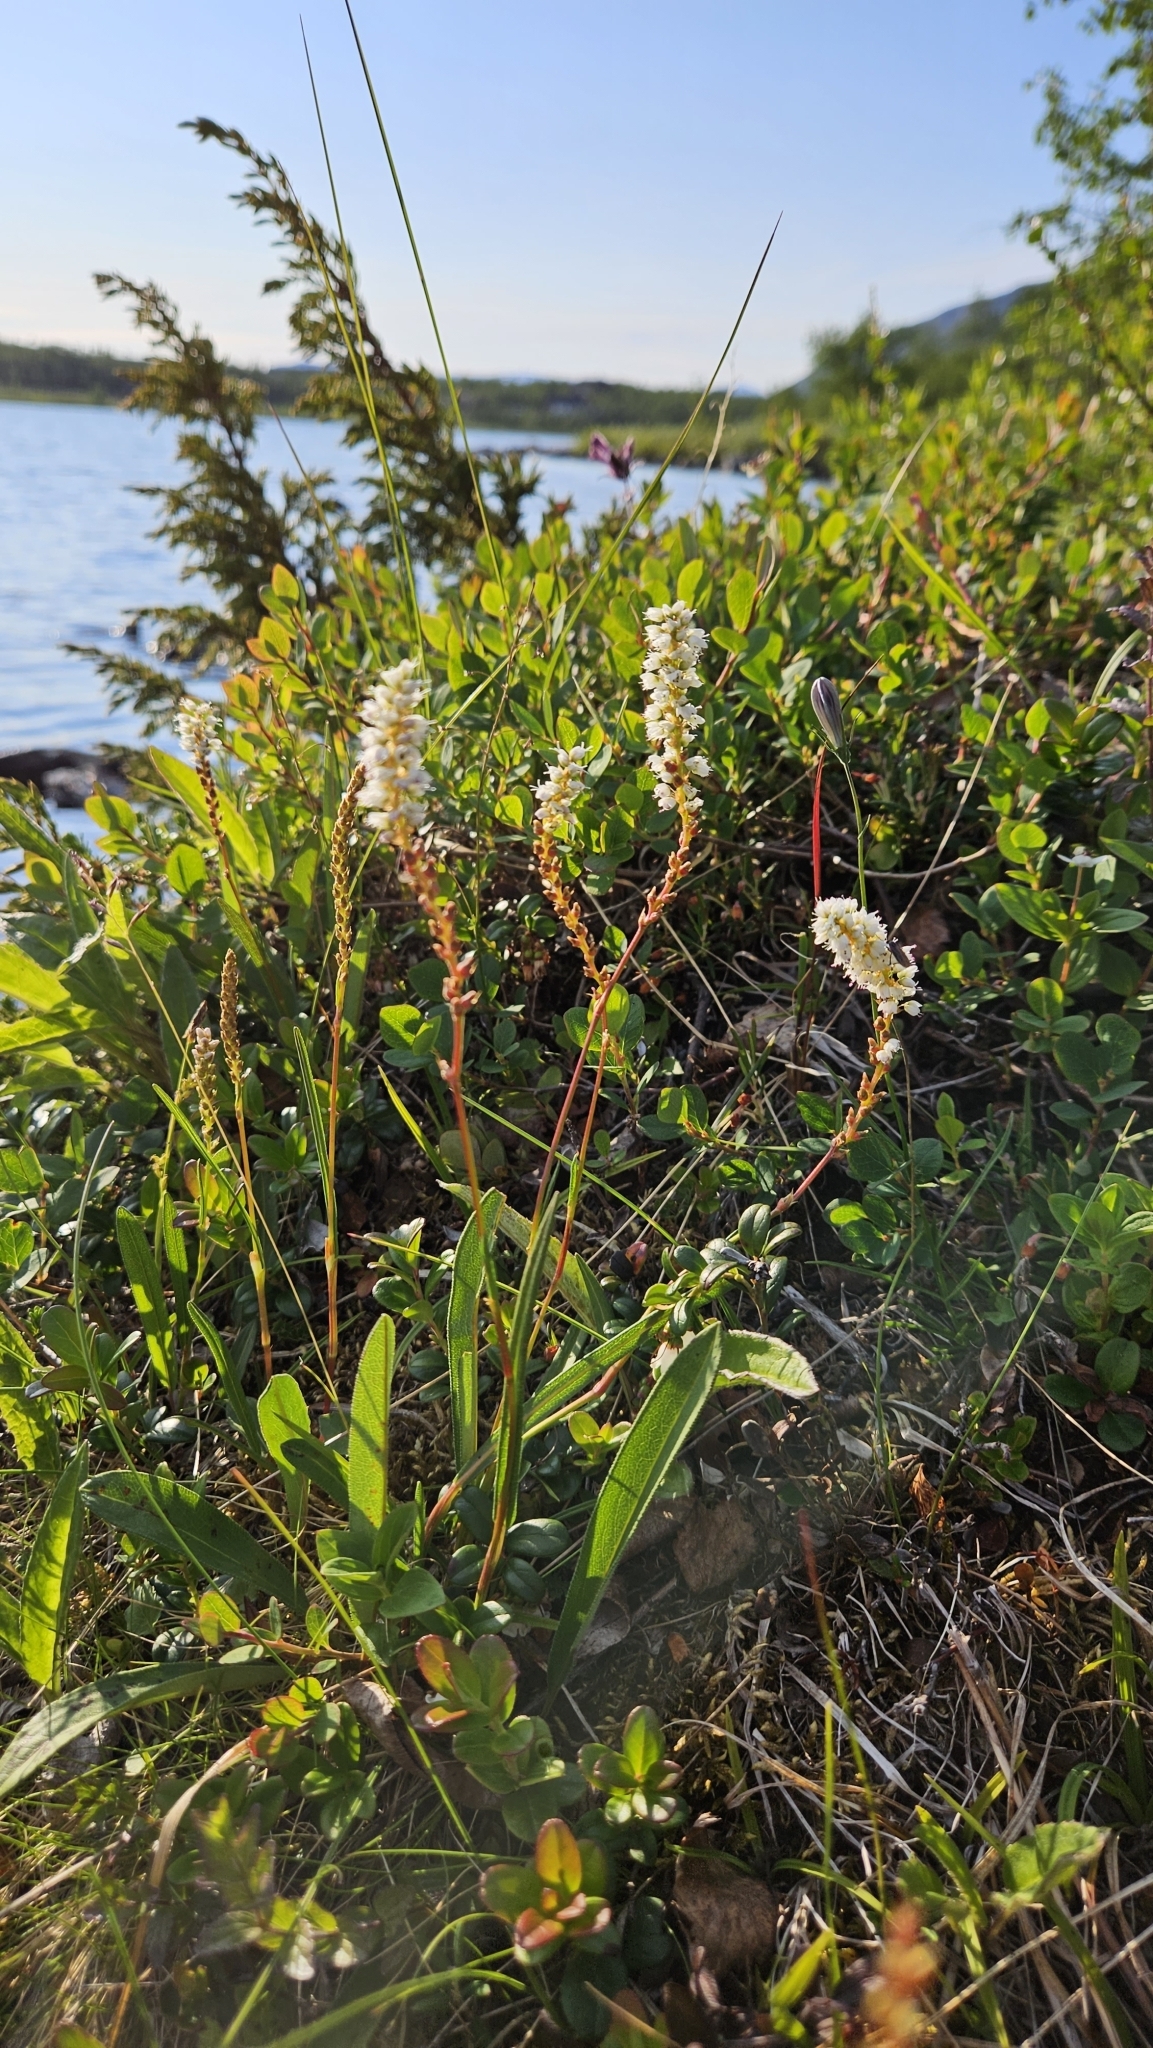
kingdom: Plantae
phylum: Tracheophyta
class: Magnoliopsida
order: Caryophyllales
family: Polygonaceae
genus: Bistorta
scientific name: Bistorta vivipara
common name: Alpine bistort
